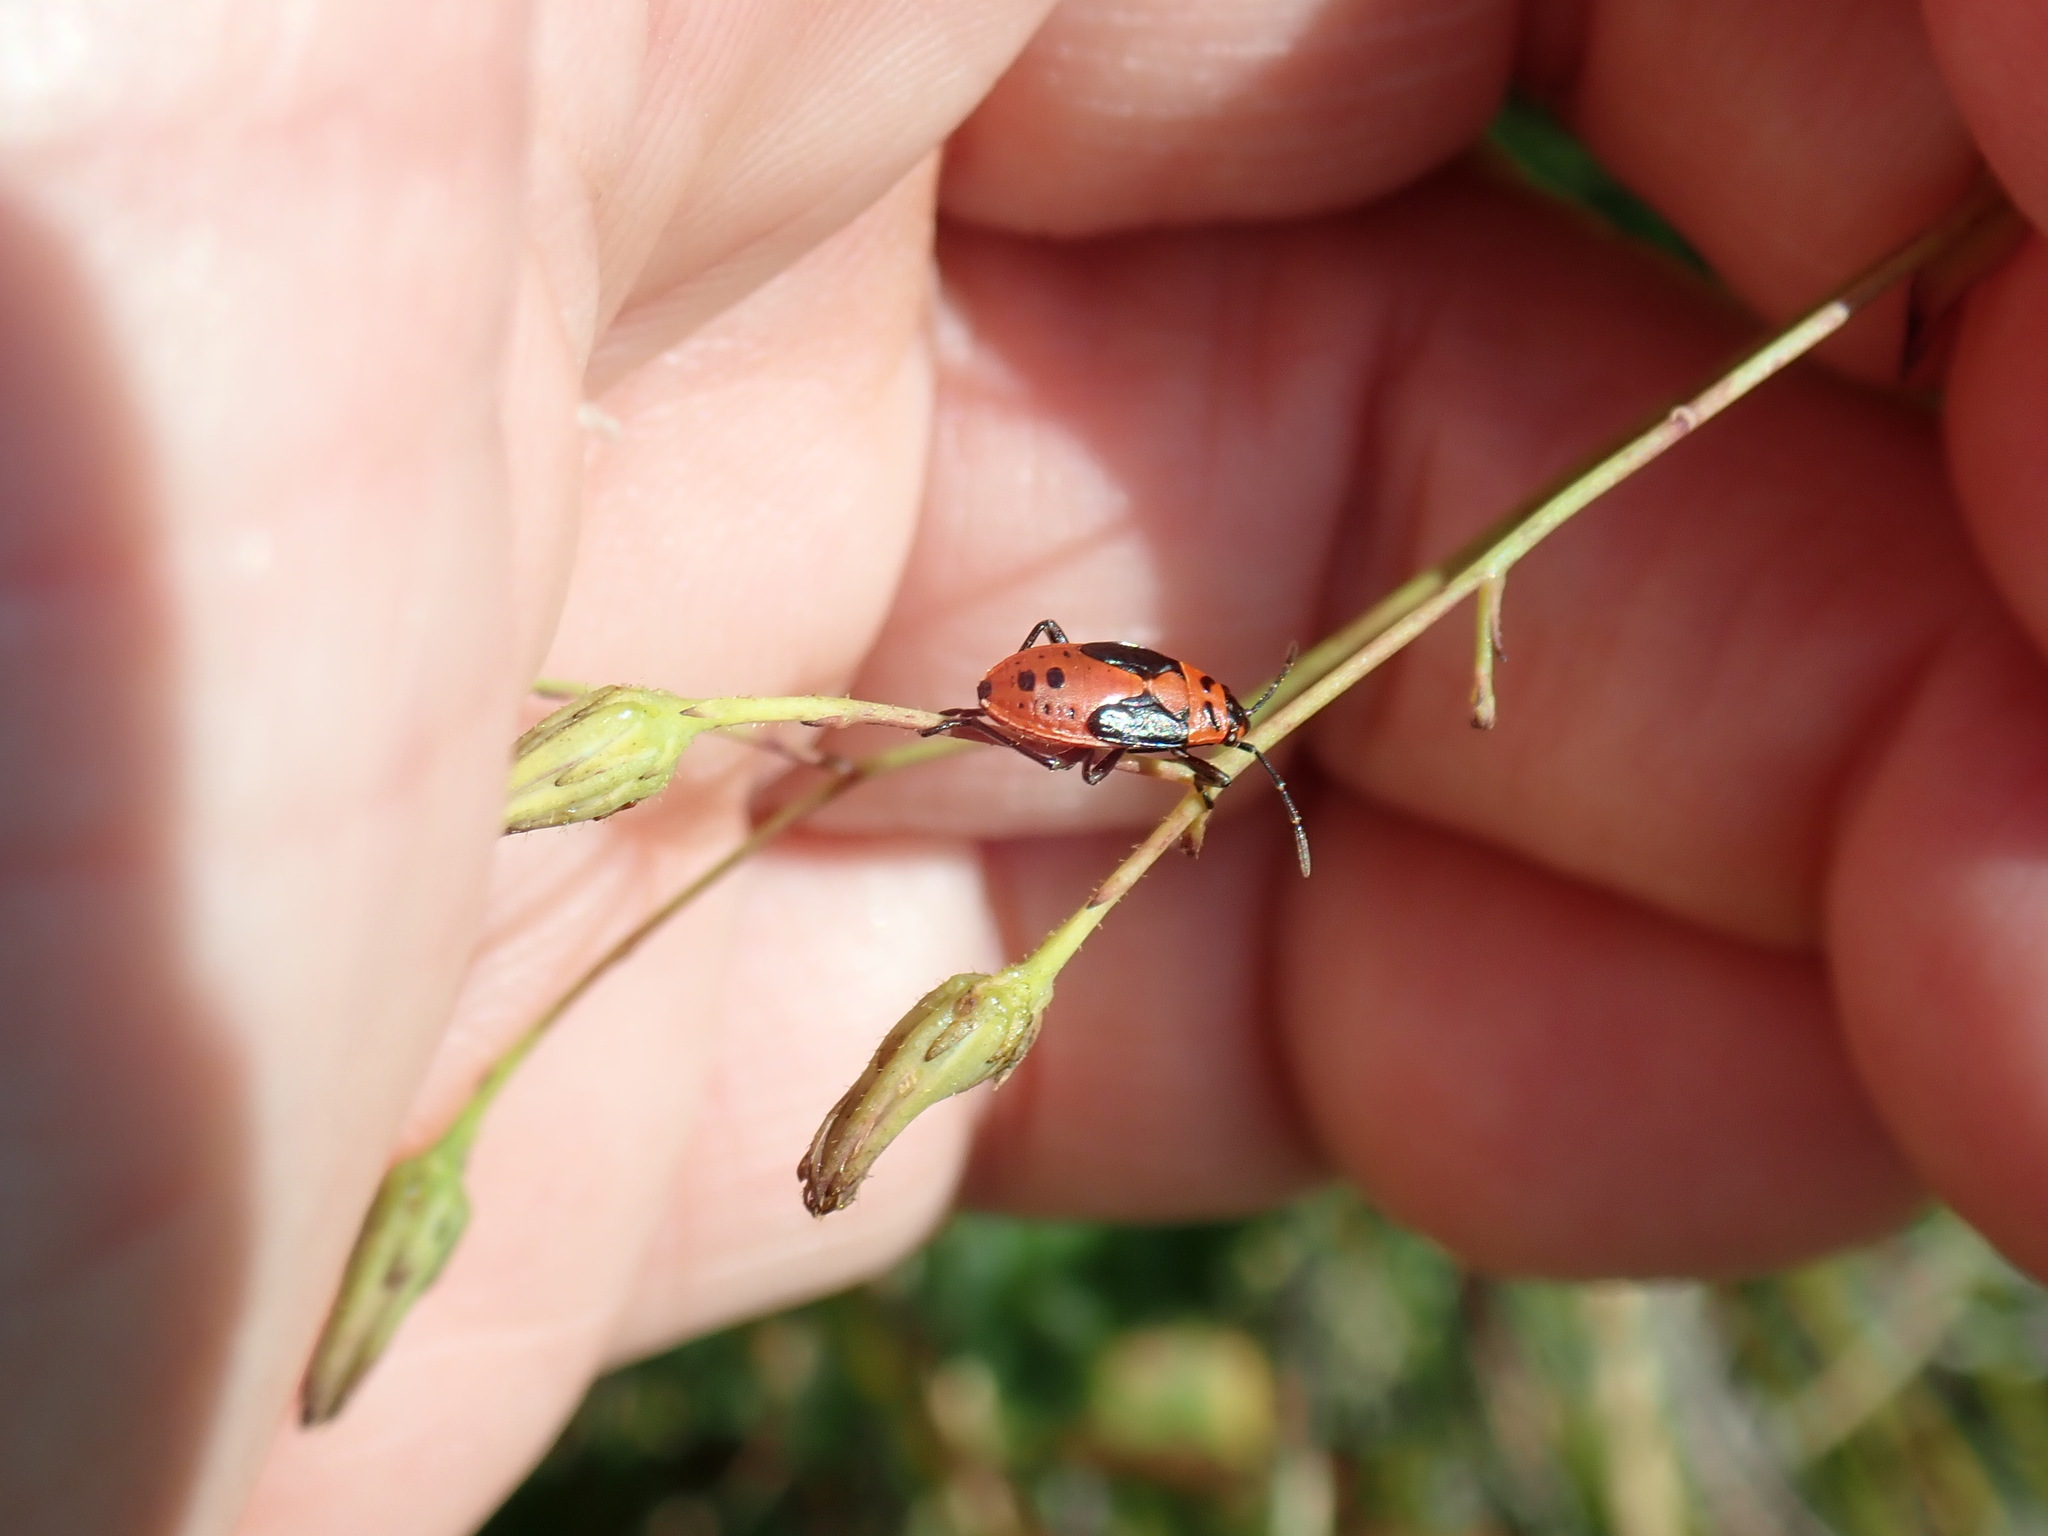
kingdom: Animalia
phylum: Arthropoda
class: Insecta
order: Hemiptera
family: Lygaeidae
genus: Lygaeus
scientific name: Lygaeus kalmii
